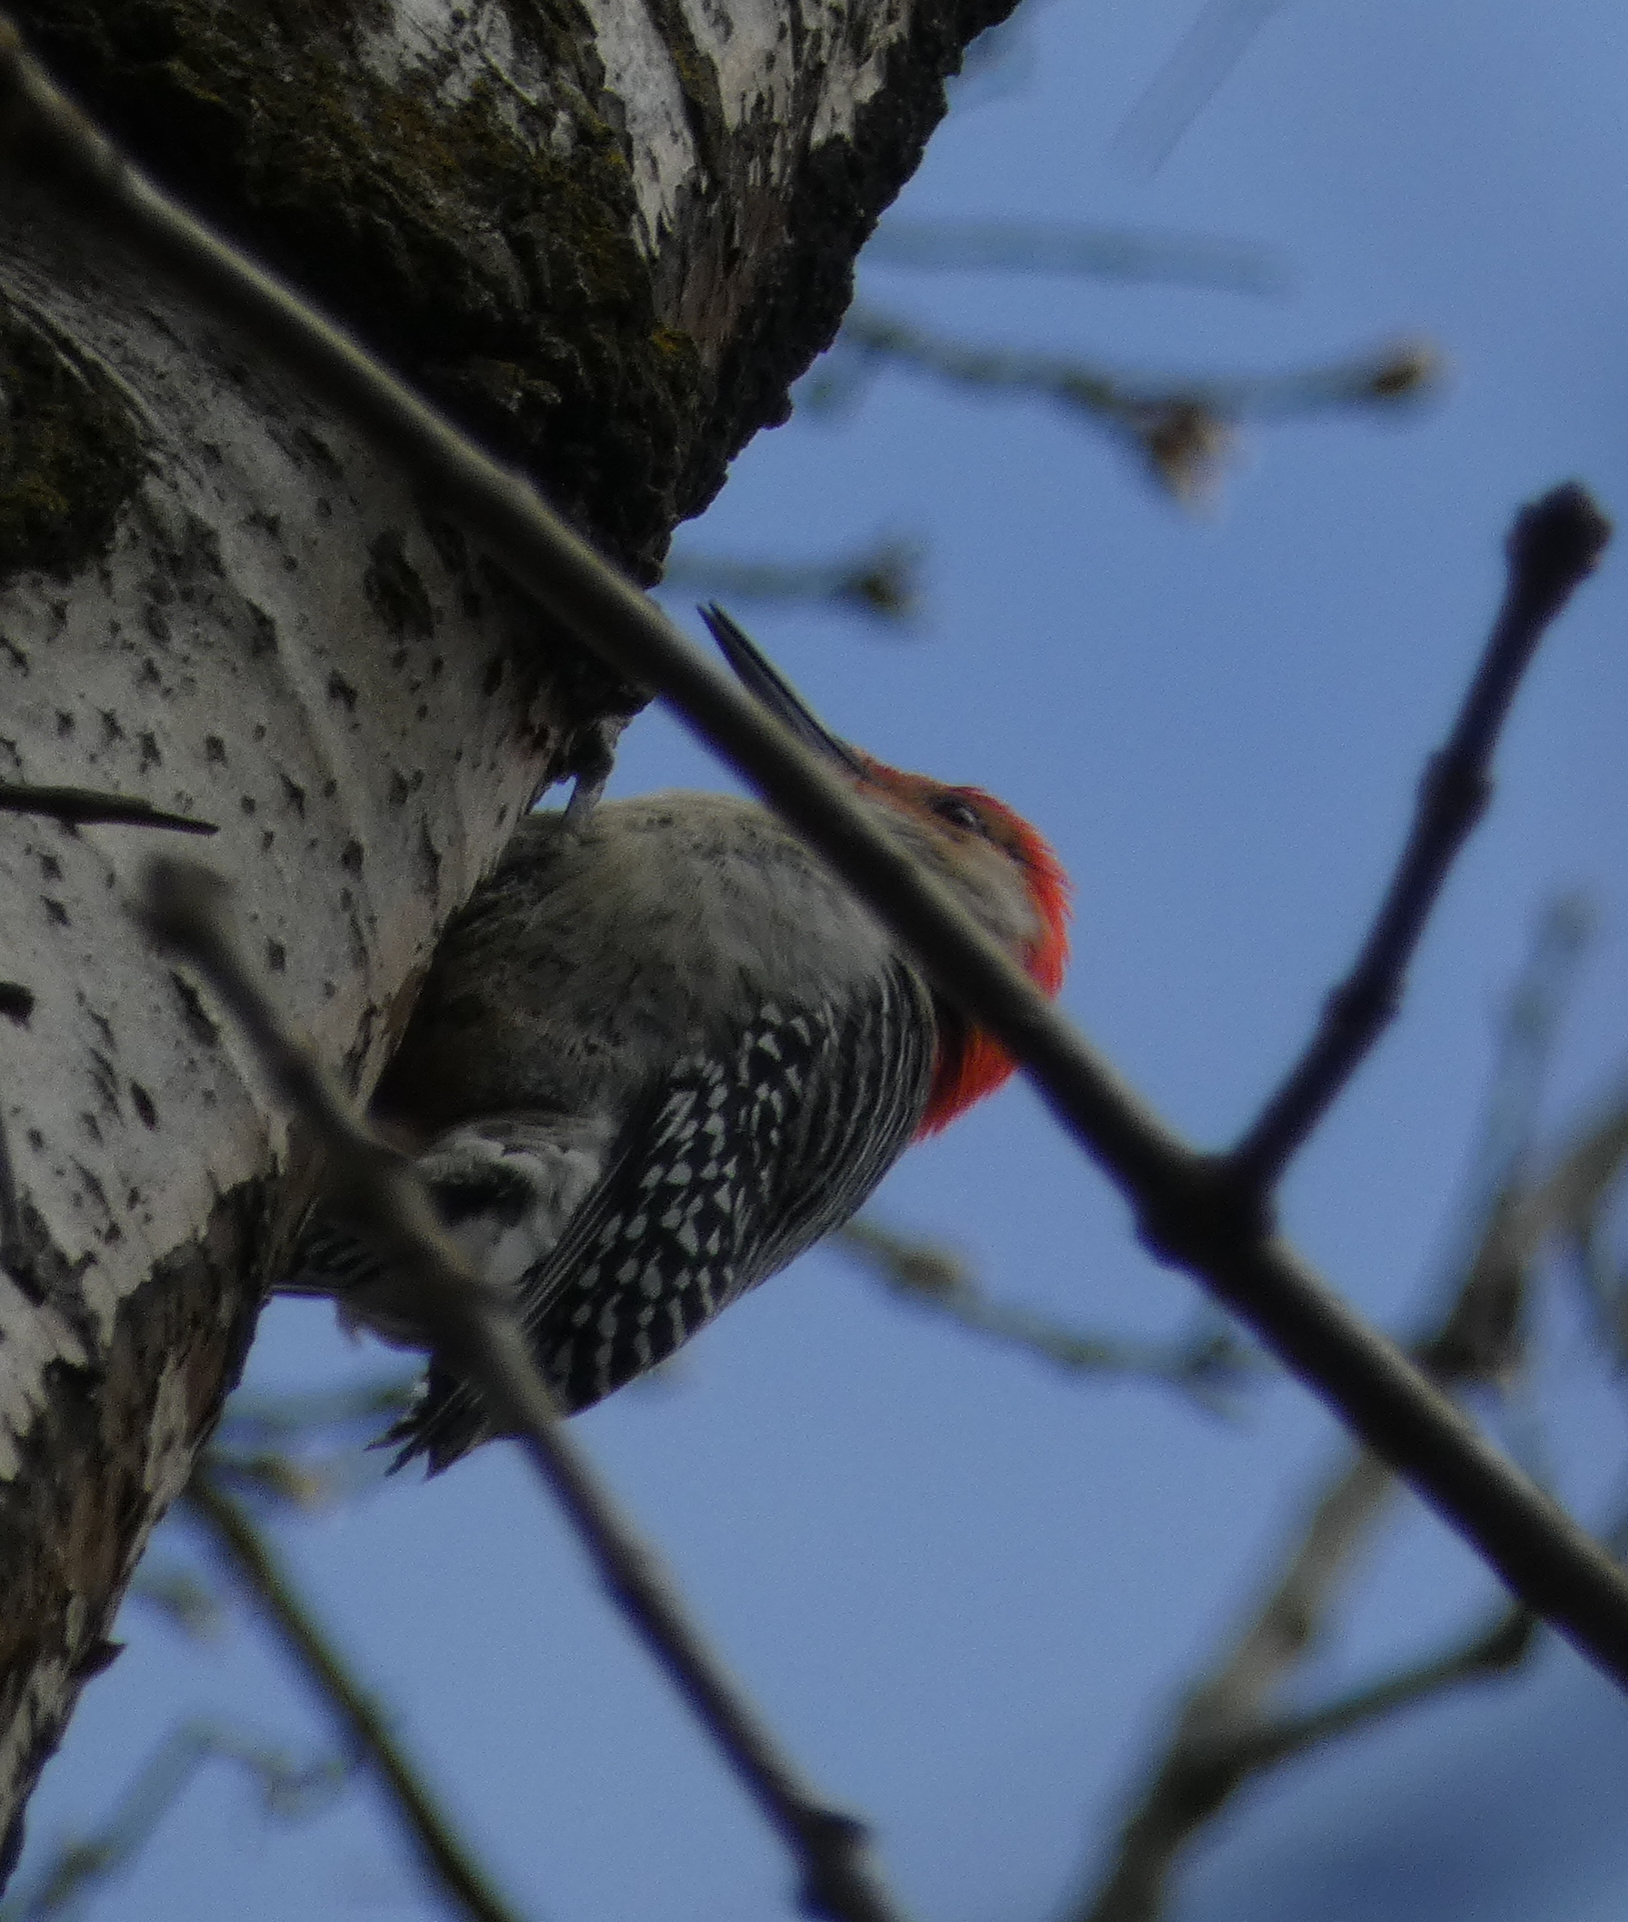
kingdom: Animalia
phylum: Chordata
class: Aves
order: Piciformes
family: Picidae
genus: Melanerpes
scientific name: Melanerpes carolinus
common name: Red-bellied woodpecker
